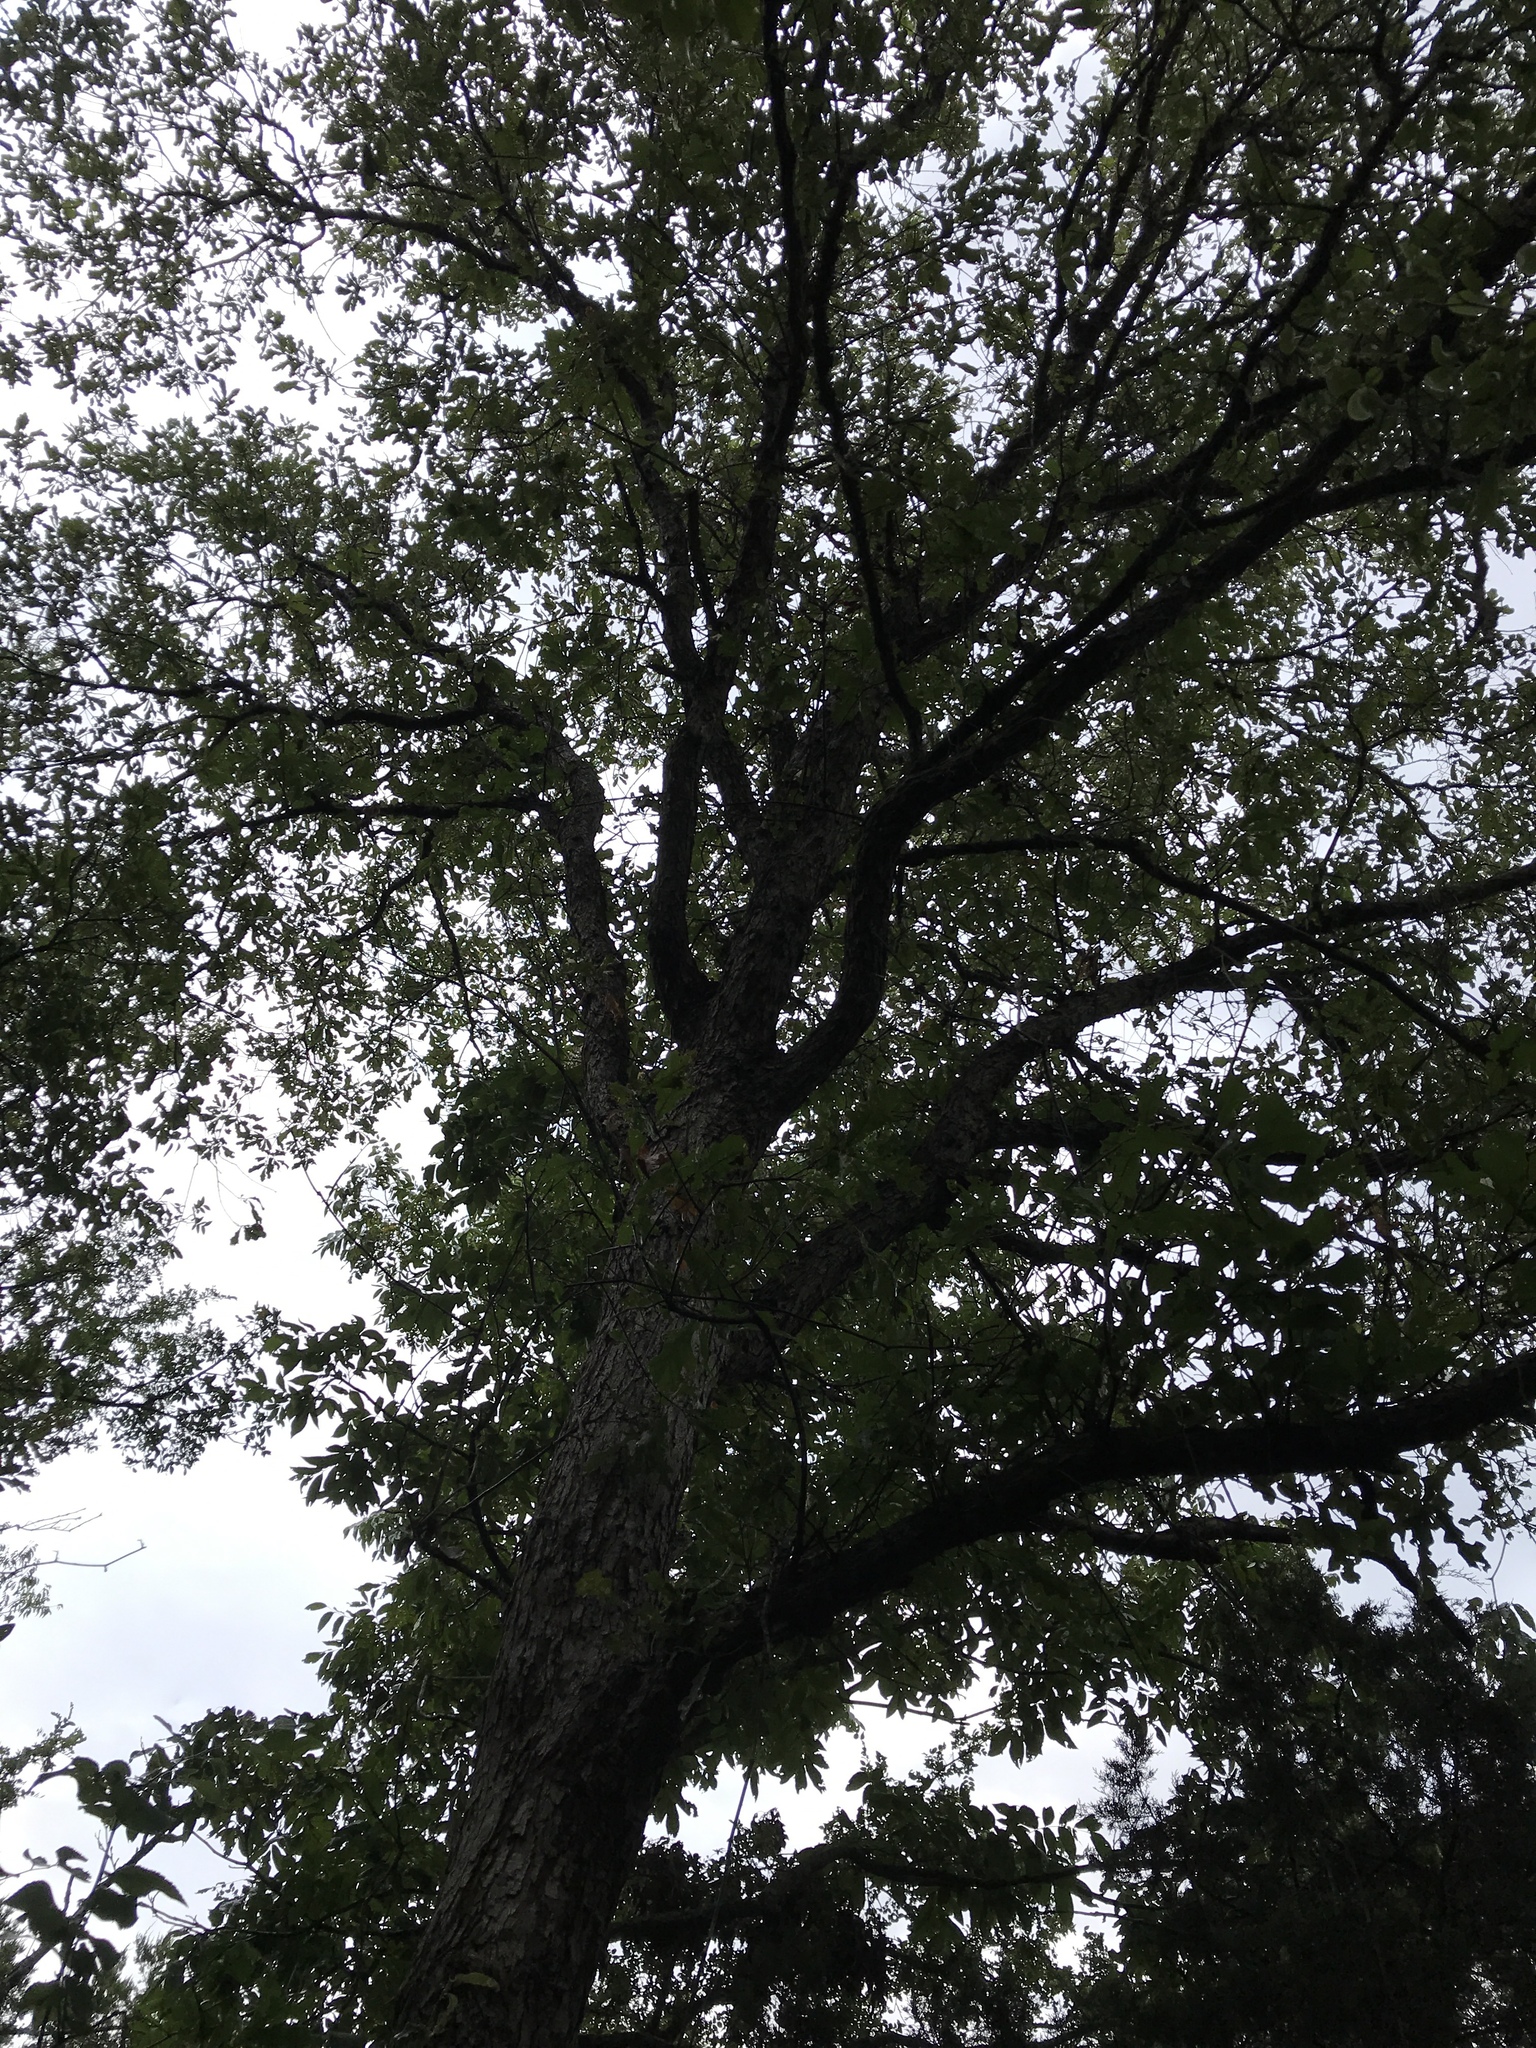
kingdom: Plantae
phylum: Tracheophyta
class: Magnoliopsida
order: Fagales
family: Fagaceae
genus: Quercus
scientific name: Quercus sinuata
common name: Durand oak
